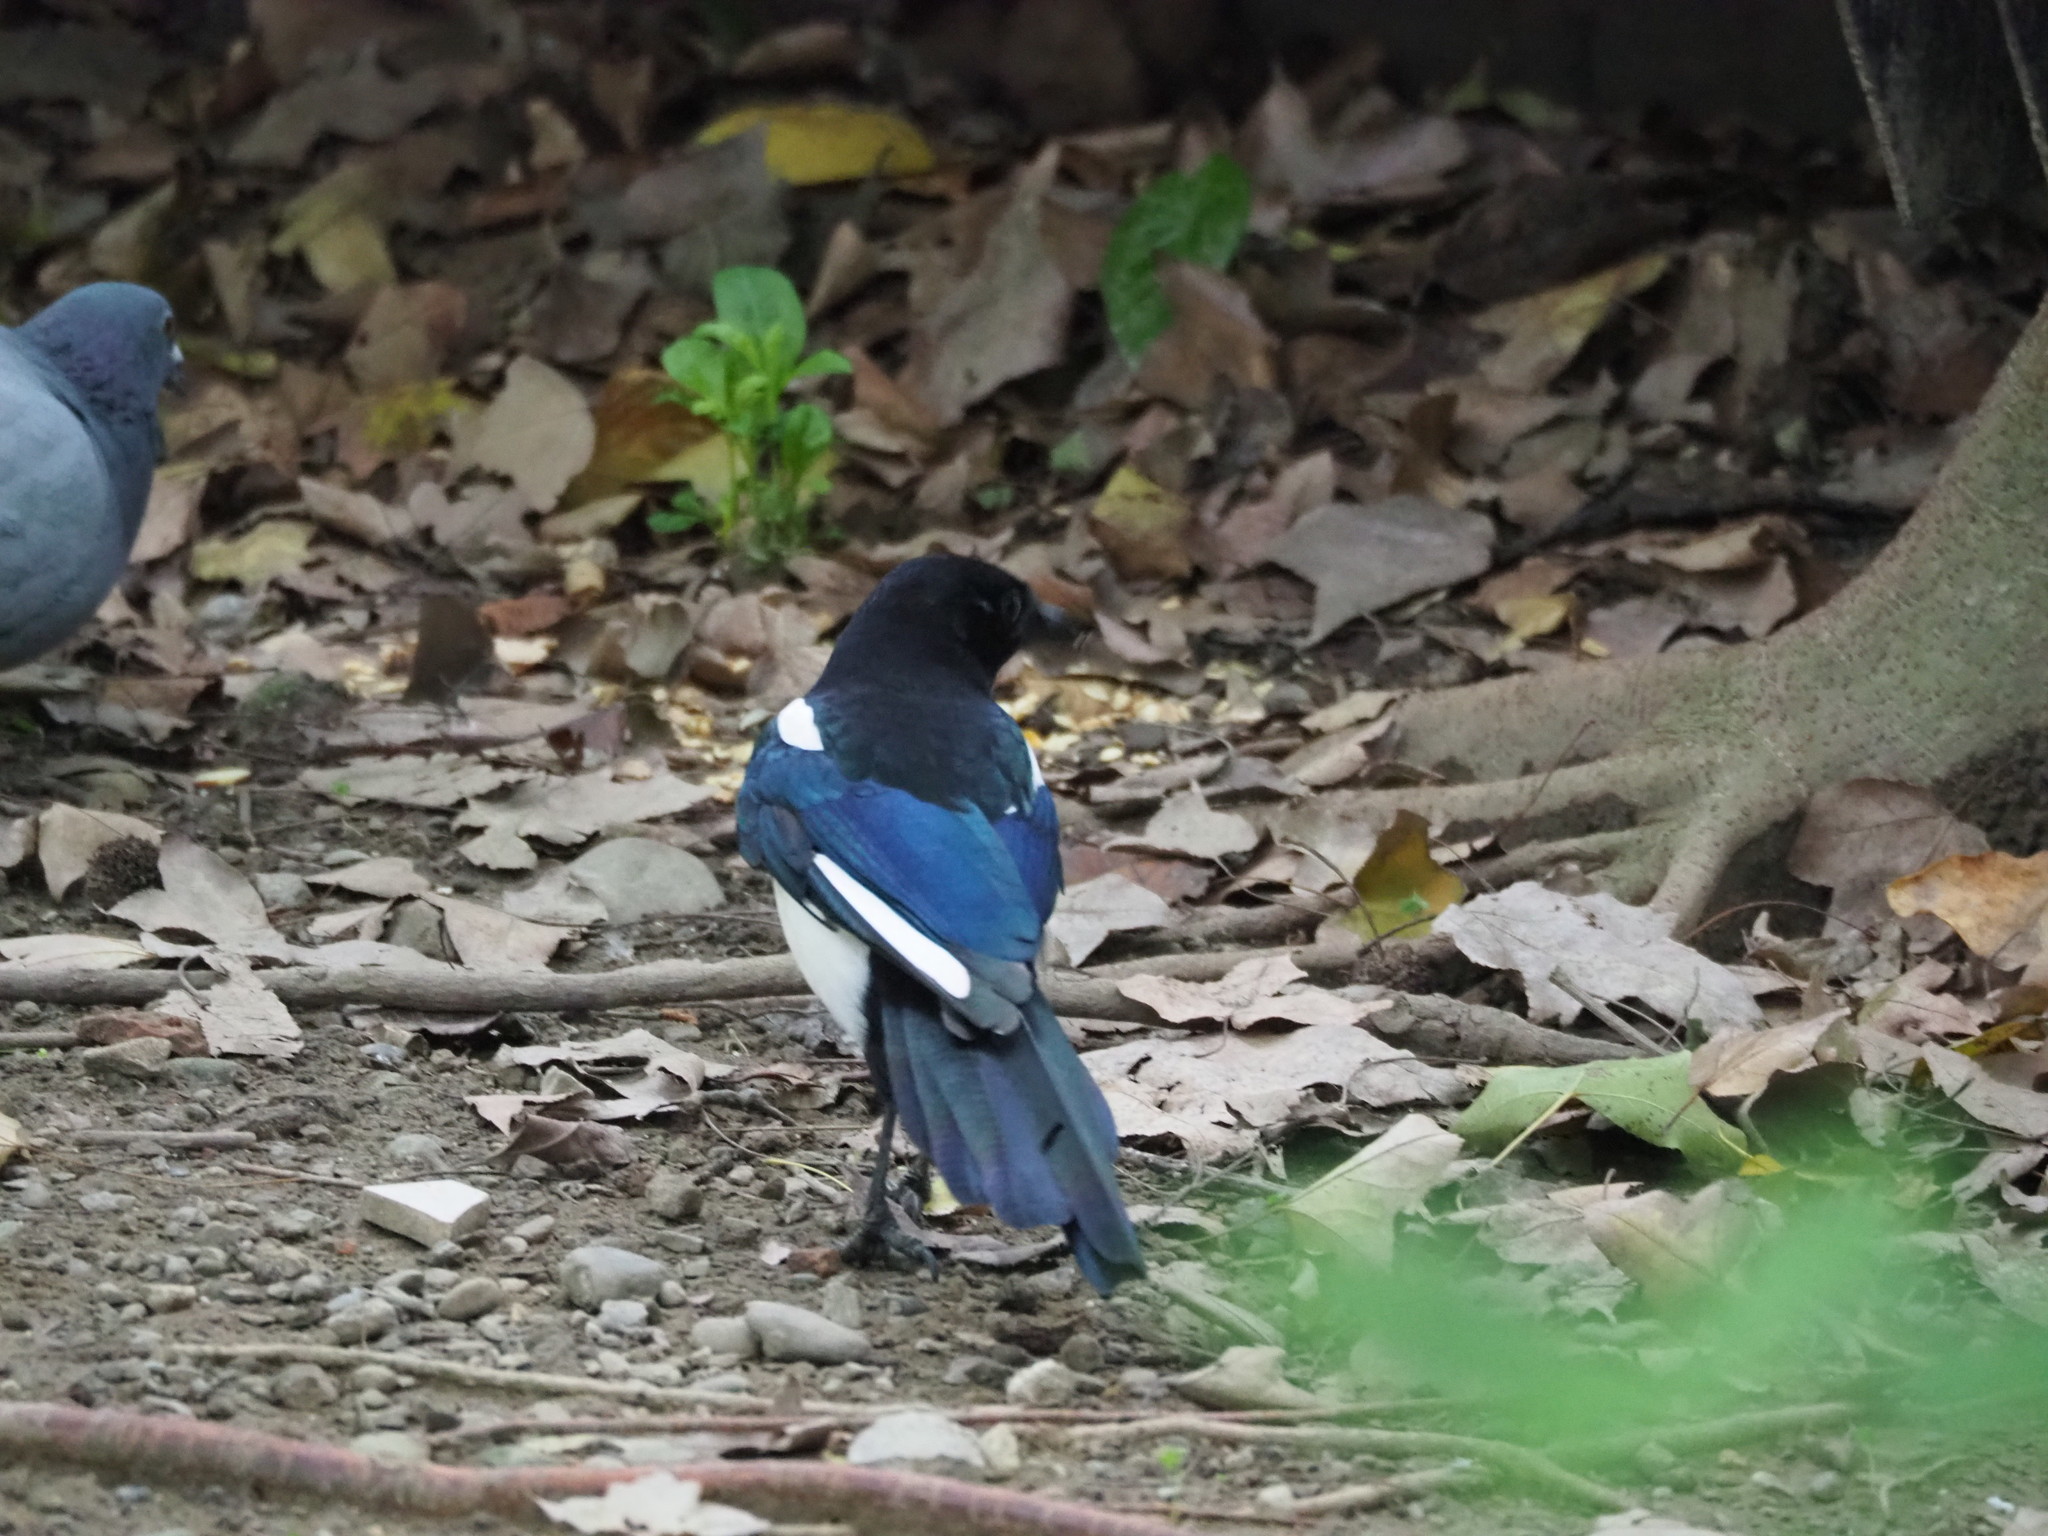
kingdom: Animalia
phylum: Chordata
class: Aves
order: Passeriformes
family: Corvidae
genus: Pica
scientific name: Pica serica
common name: Oriental magpie
